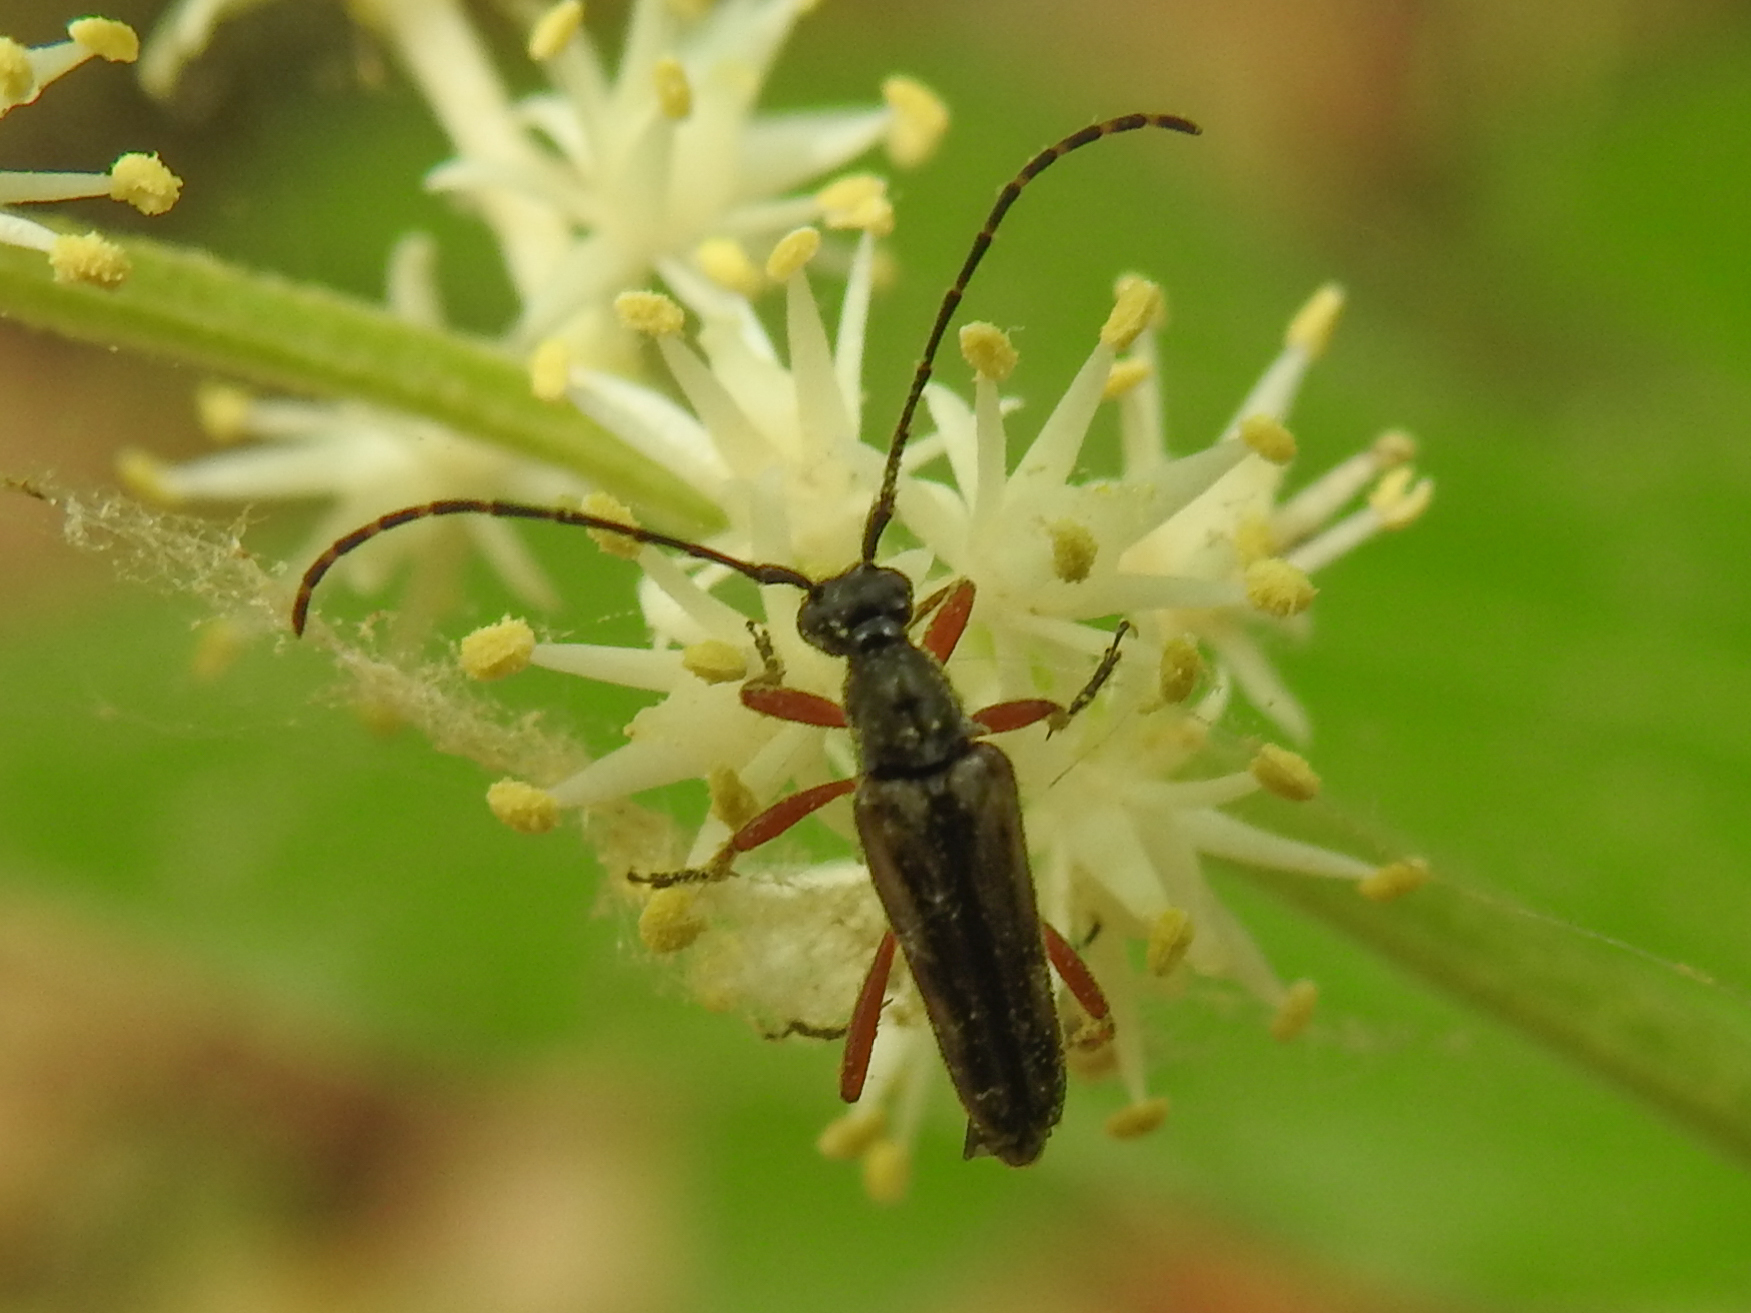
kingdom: Animalia
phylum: Arthropoda
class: Insecta
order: Coleoptera
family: Cerambycidae
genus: Analeptura
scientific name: Analeptura lineola
